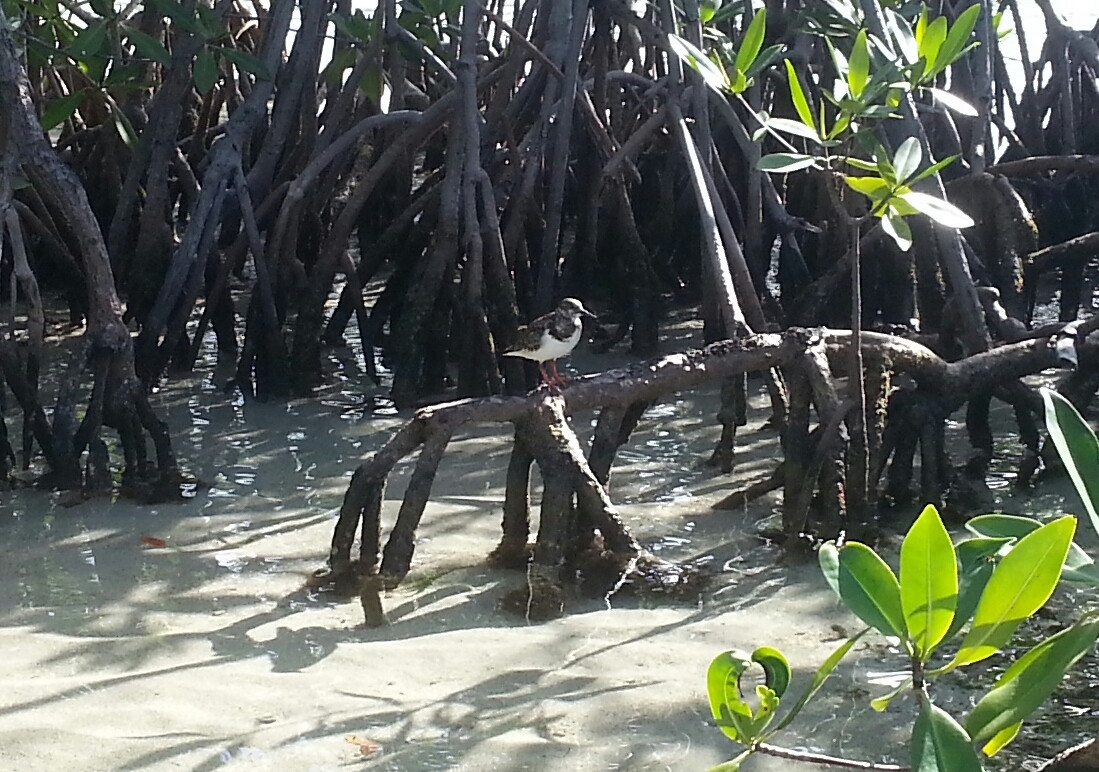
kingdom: Animalia
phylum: Chordata
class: Aves
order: Charadriiformes
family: Scolopacidae
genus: Arenaria
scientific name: Arenaria interpres
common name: Ruddy turnstone
